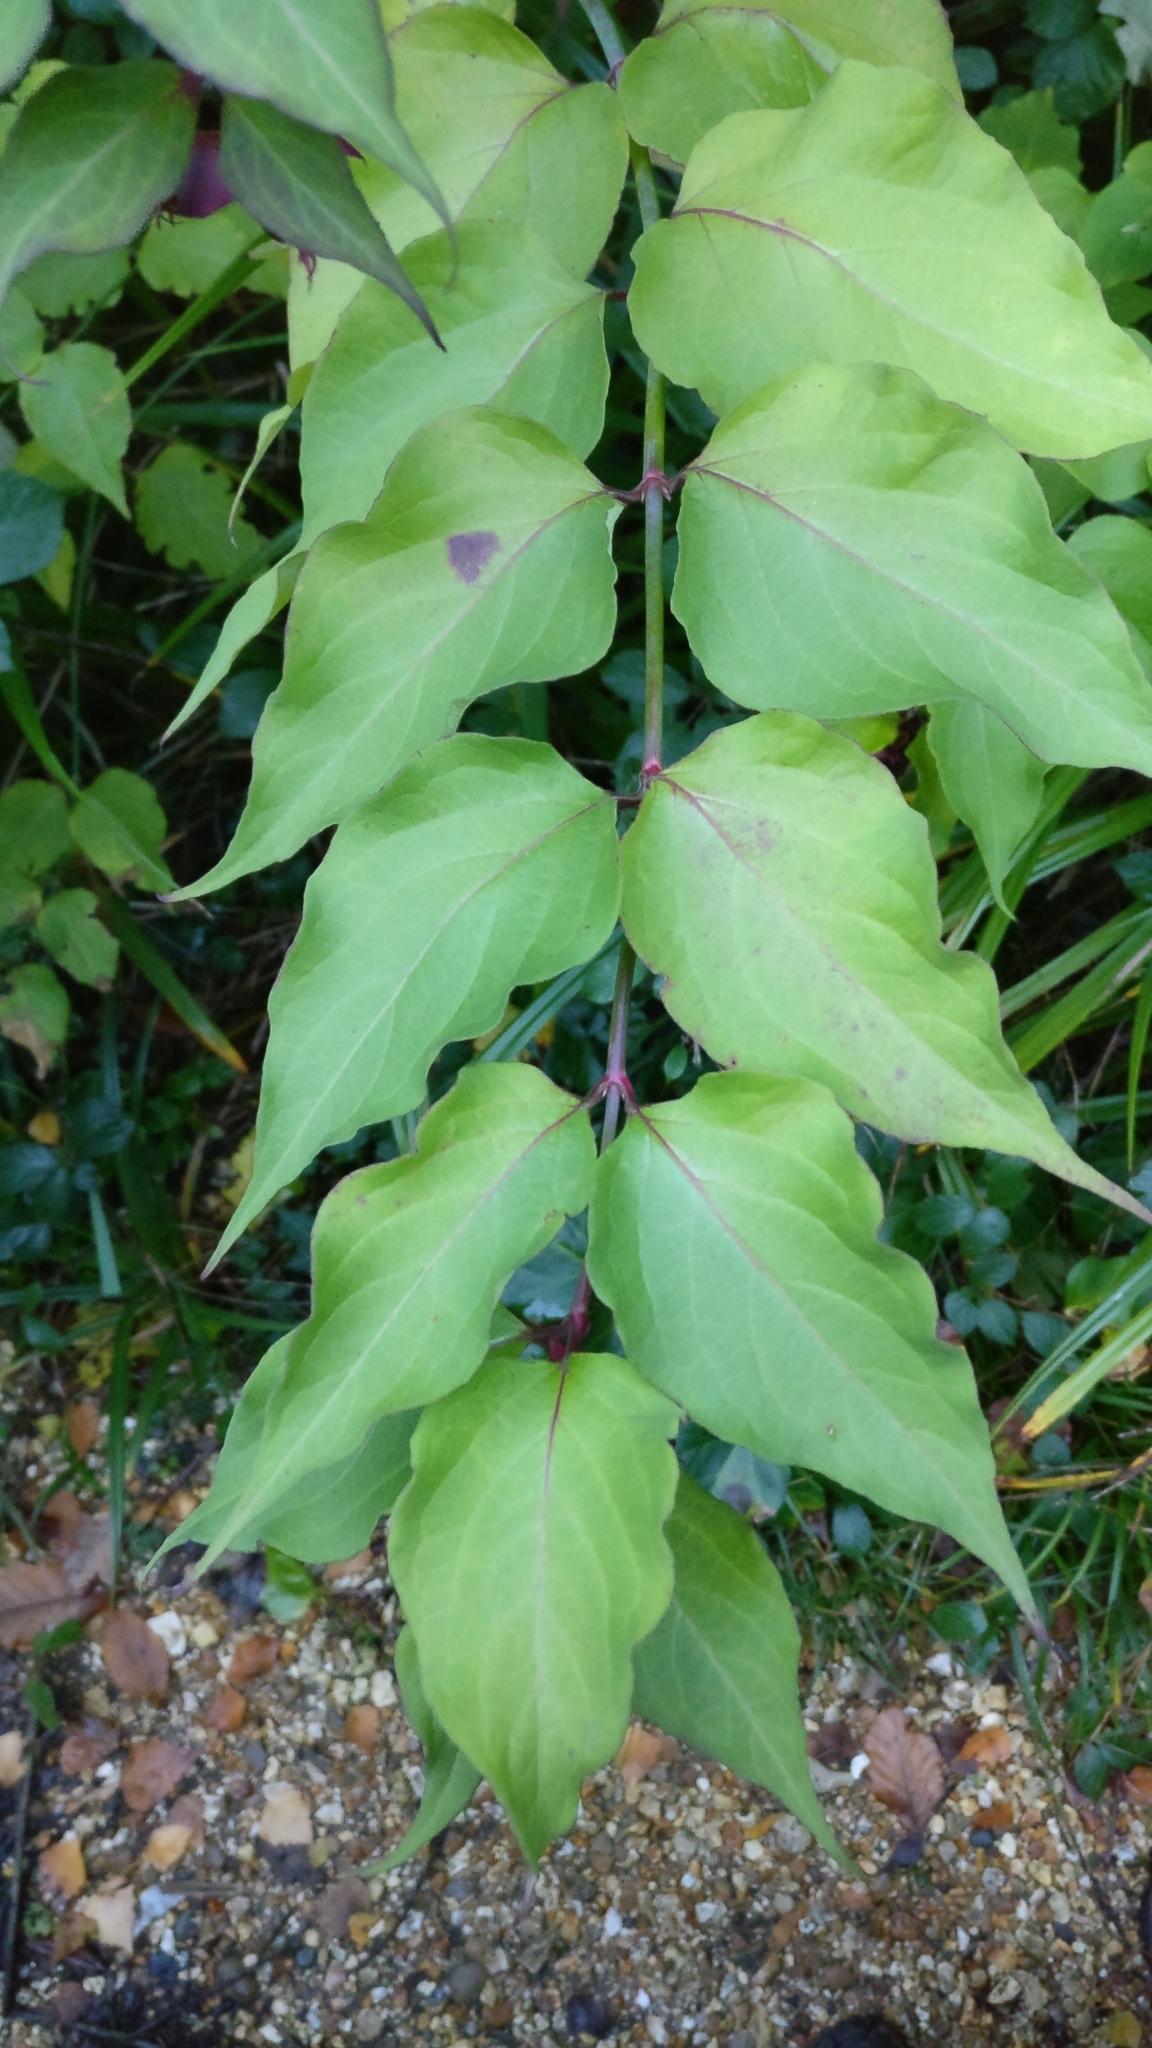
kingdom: Plantae
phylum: Tracheophyta
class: Magnoliopsida
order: Dipsacales
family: Caprifoliaceae
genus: Leycesteria
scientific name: Leycesteria formosa
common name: Himalayan honeysuckle
